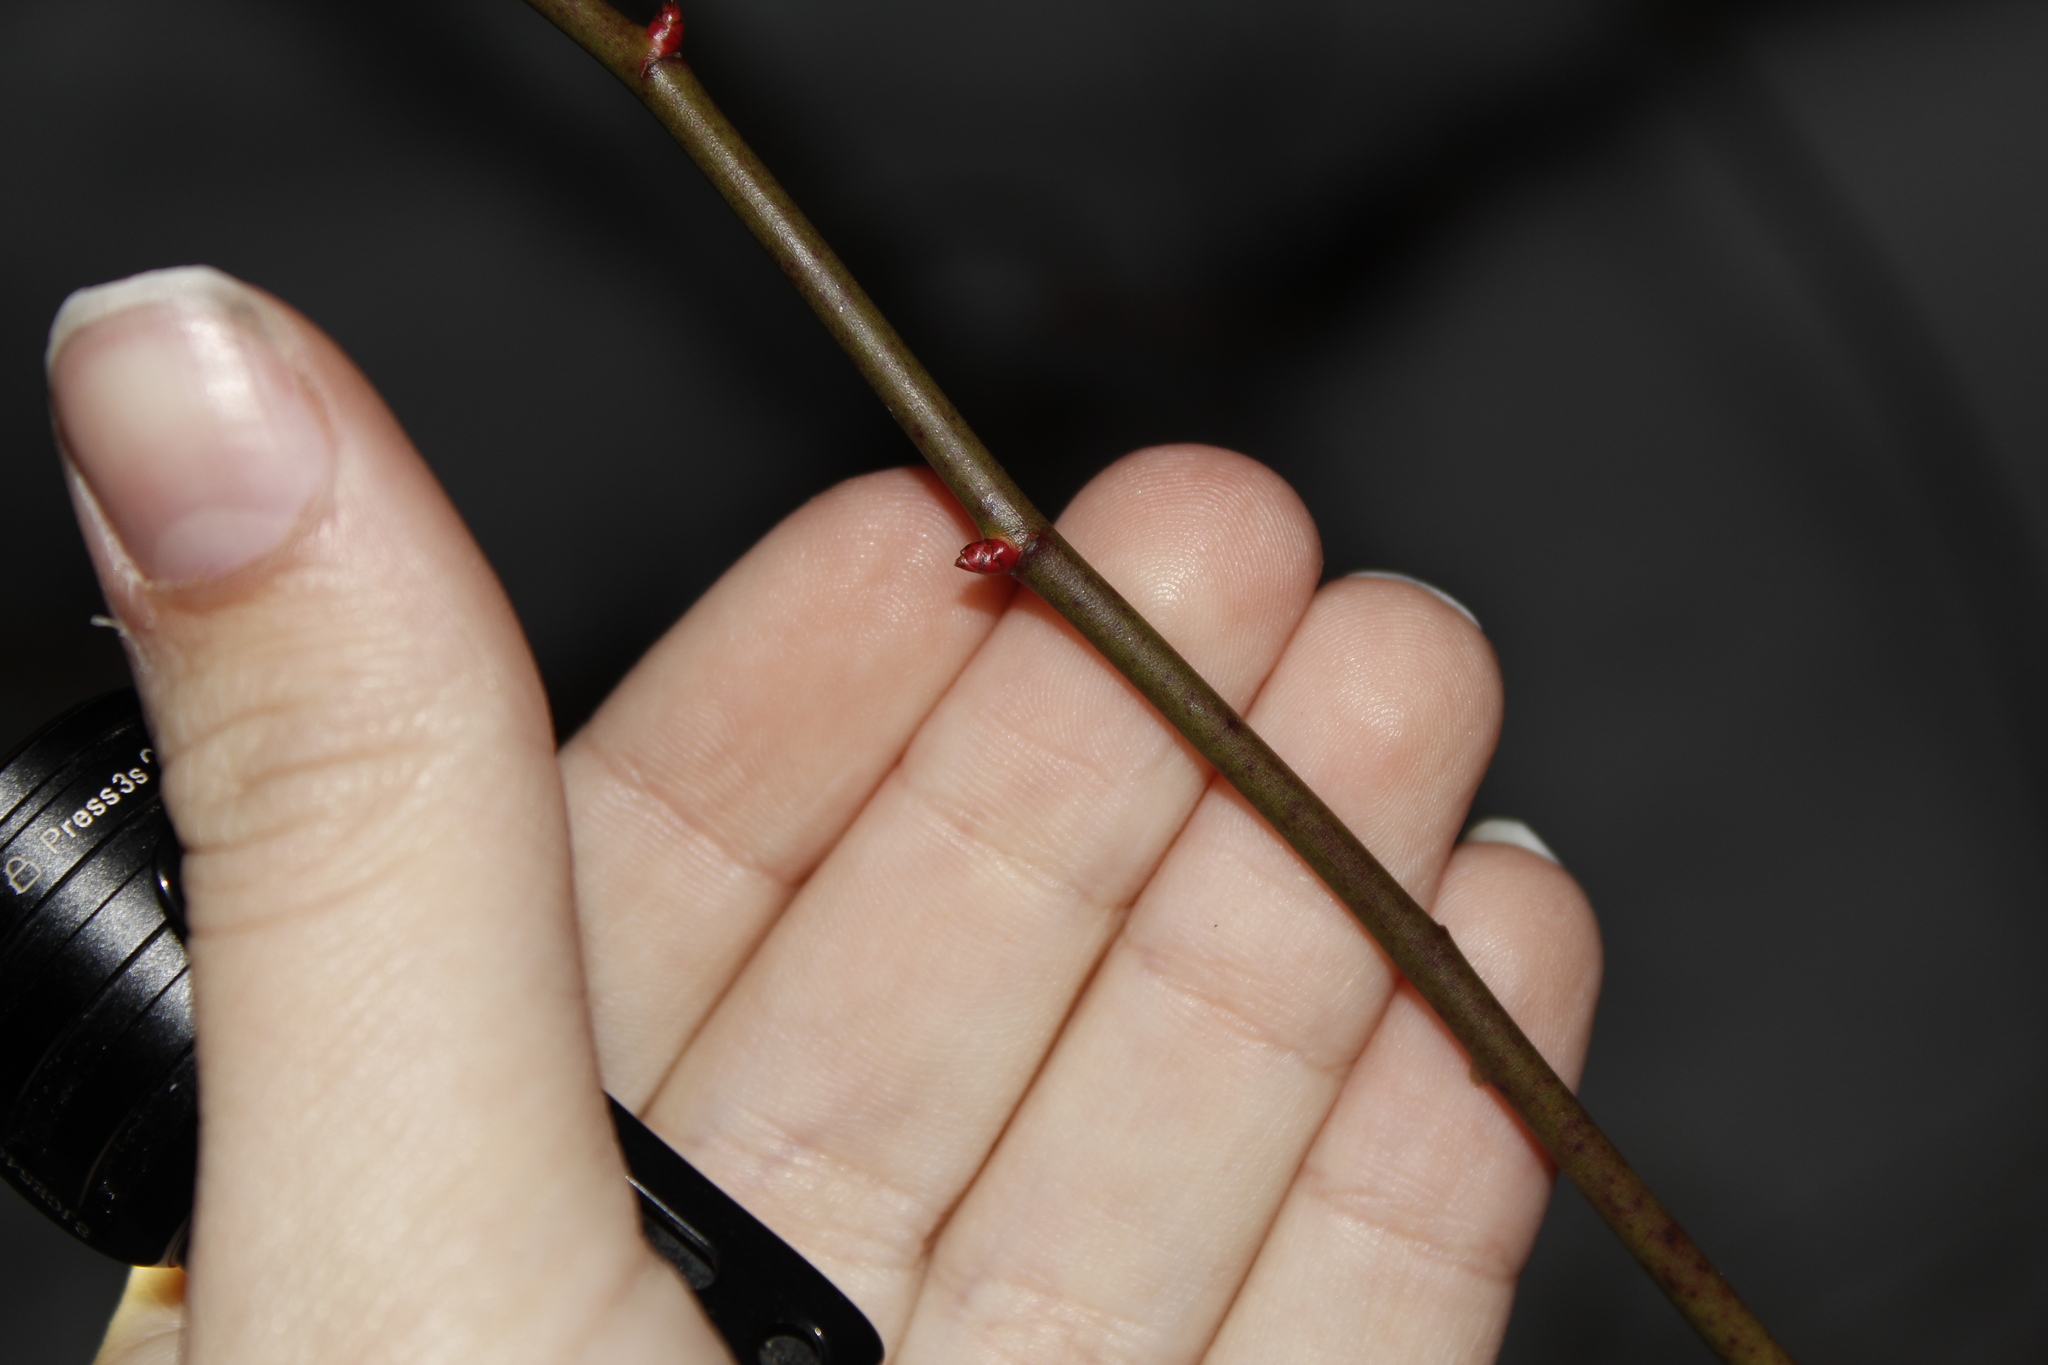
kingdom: Plantae
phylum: Tracheophyta
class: Magnoliopsida
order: Rosales
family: Rosaceae
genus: Rosa
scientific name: Rosa multiflora
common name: Multiflora rose
